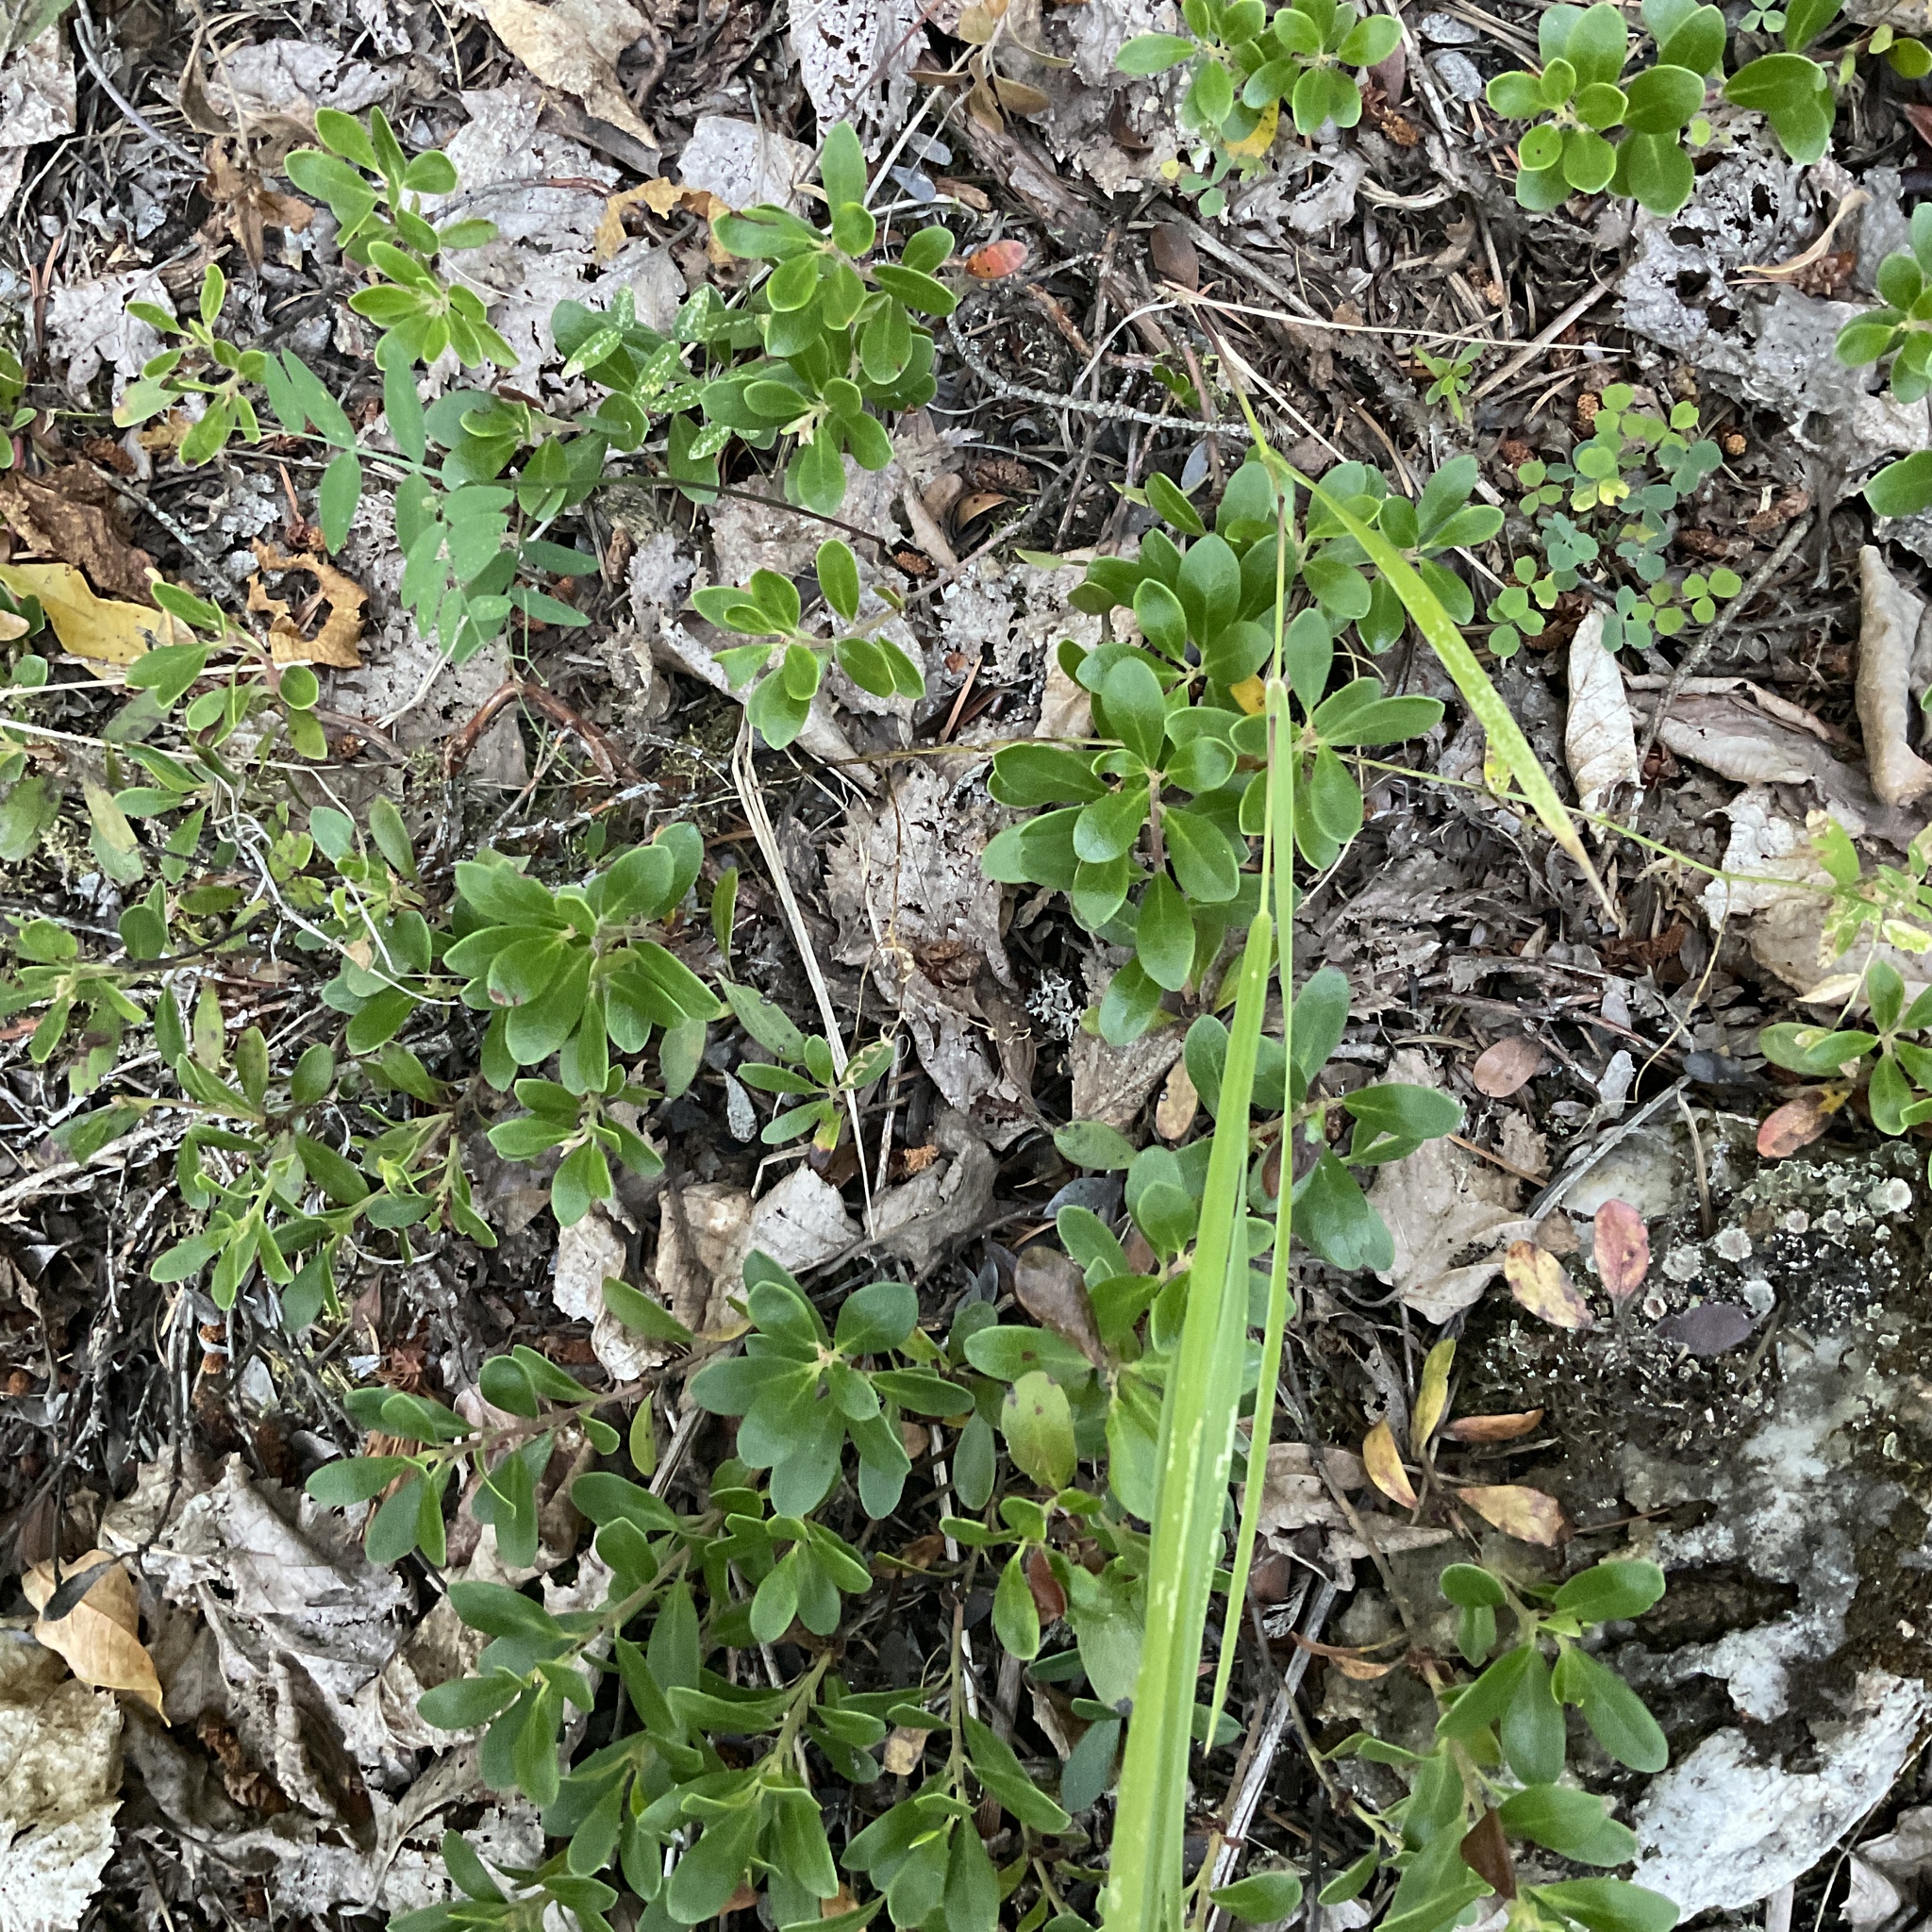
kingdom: Plantae
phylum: Tracheophyta
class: Magnoliopsida
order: Ericales
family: Ericaceae
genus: Arctostaphylos
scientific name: Arctostaphylos uva-ursi
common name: Bearberry
